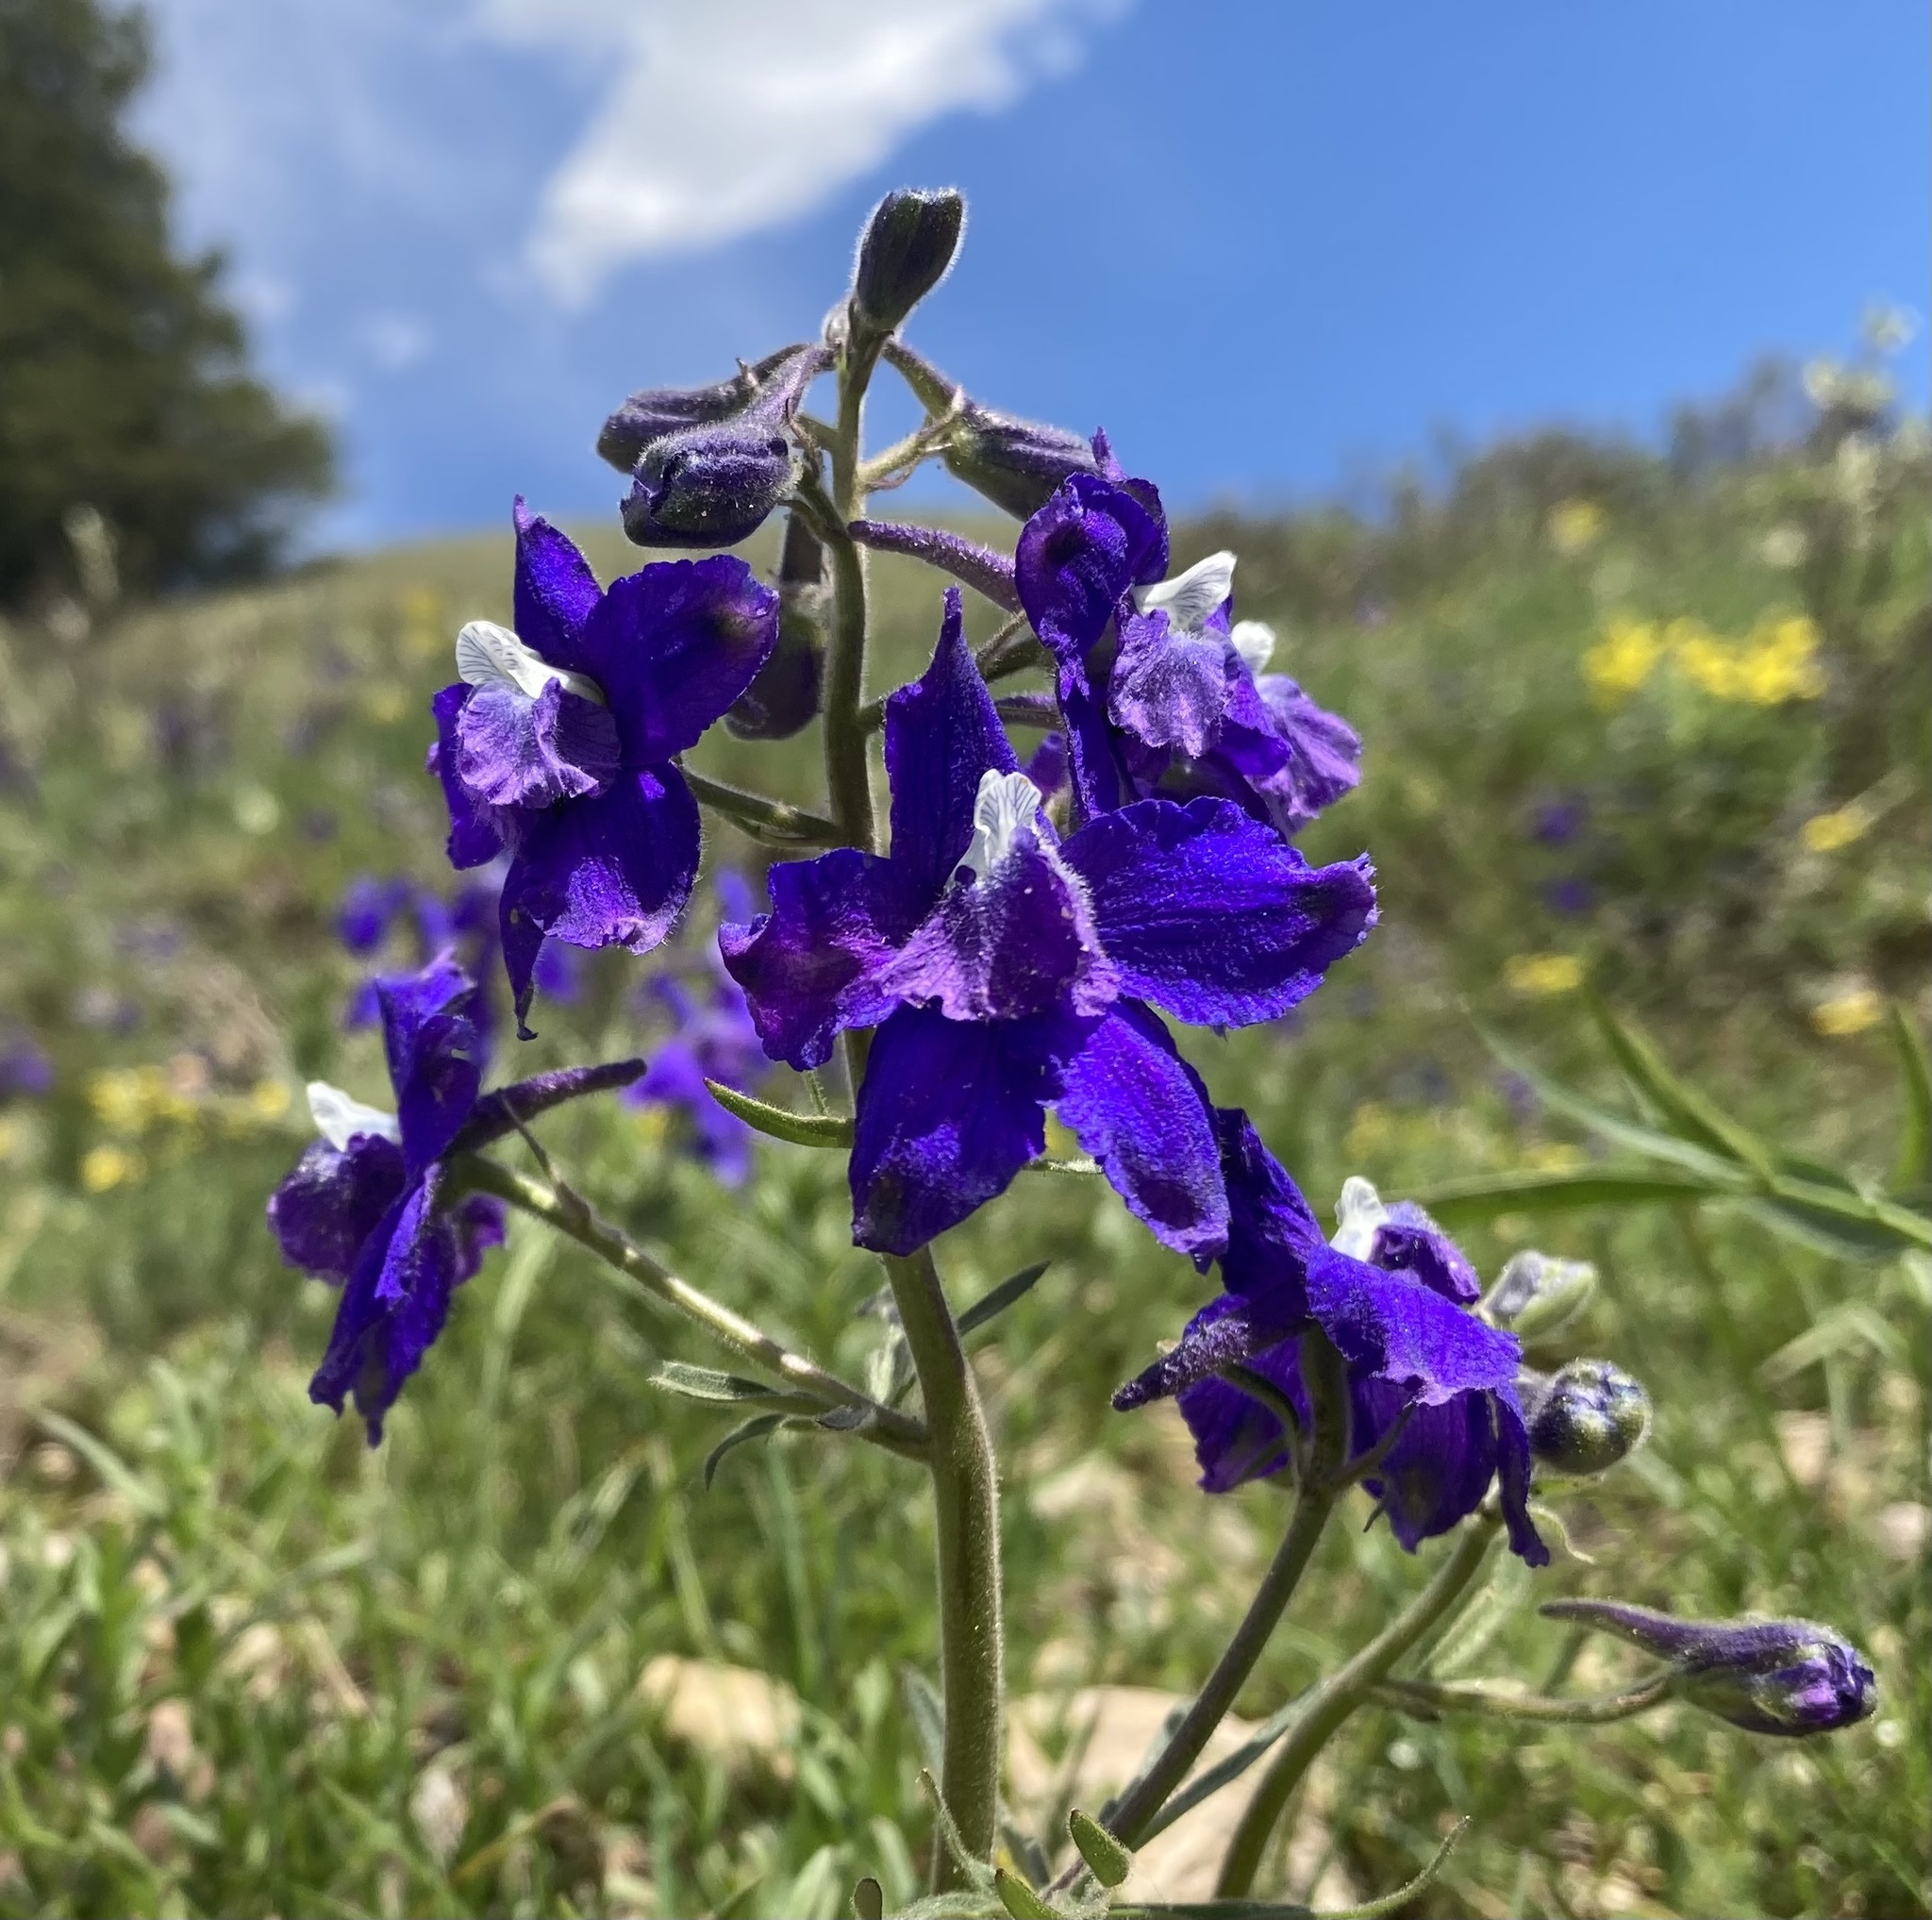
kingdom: Plantae
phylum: Tracheophyta
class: Magnoliopsida
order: Ranunculales
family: Ranunculaceae
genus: Delphinium
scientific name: Delphinium bicolor
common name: Low larkspur
